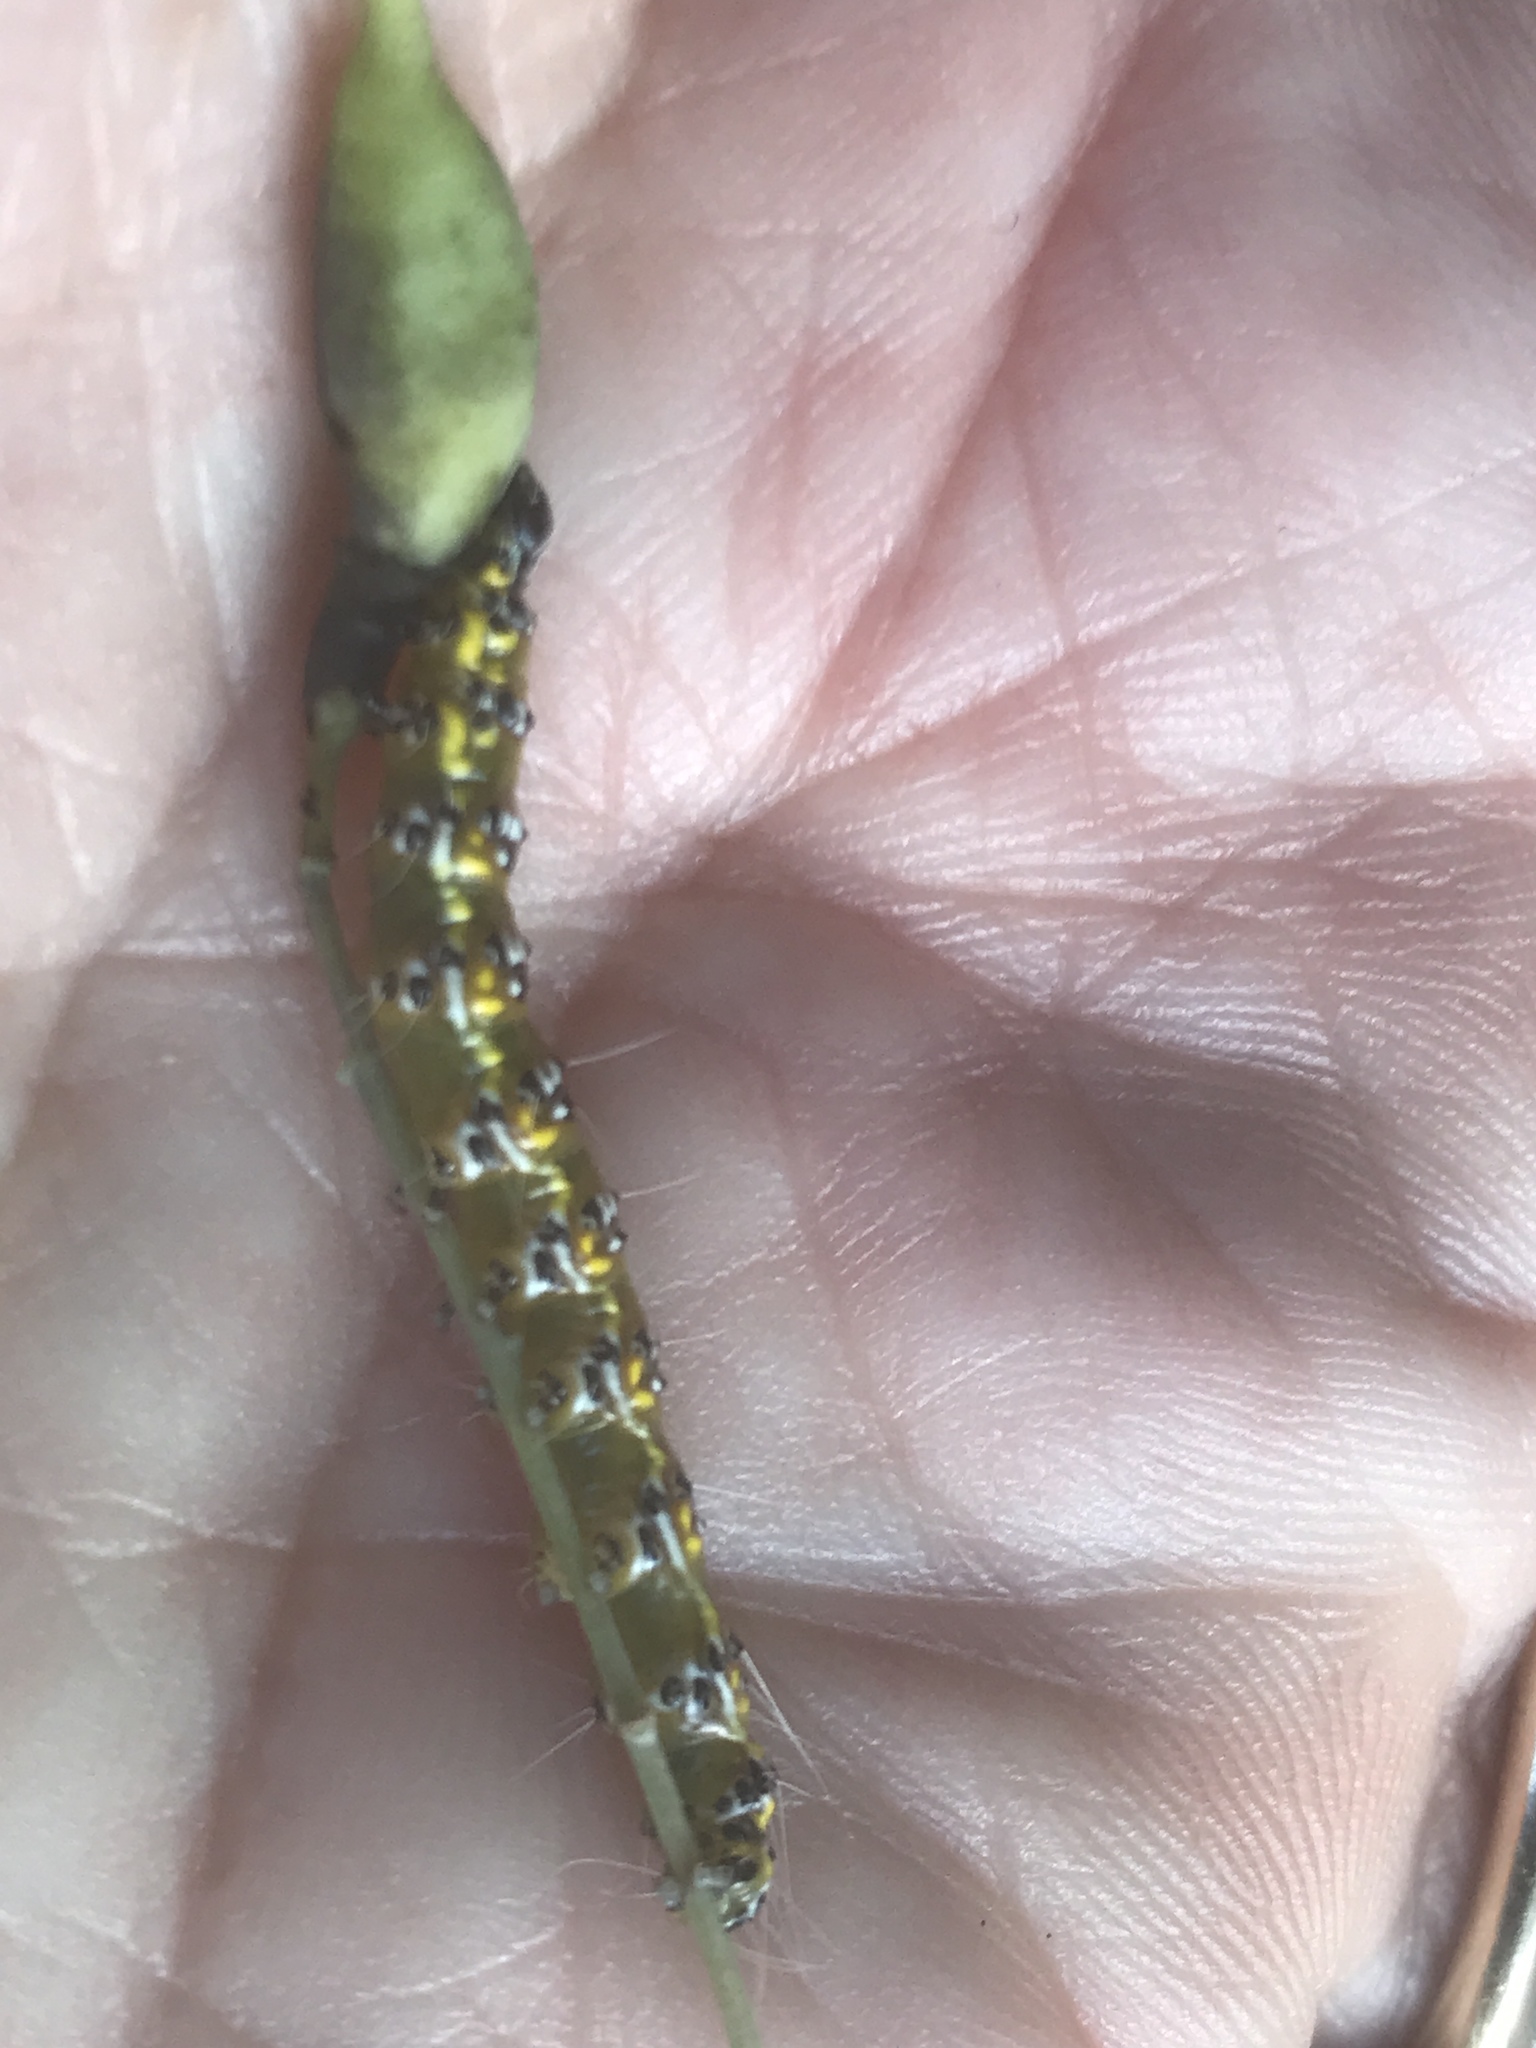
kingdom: Animalia
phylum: Arthropoda
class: Insecta
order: Lepidoptera
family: Crambidae
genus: Uresiphita
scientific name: Uresiphita reversalis
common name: Genista broom moth
